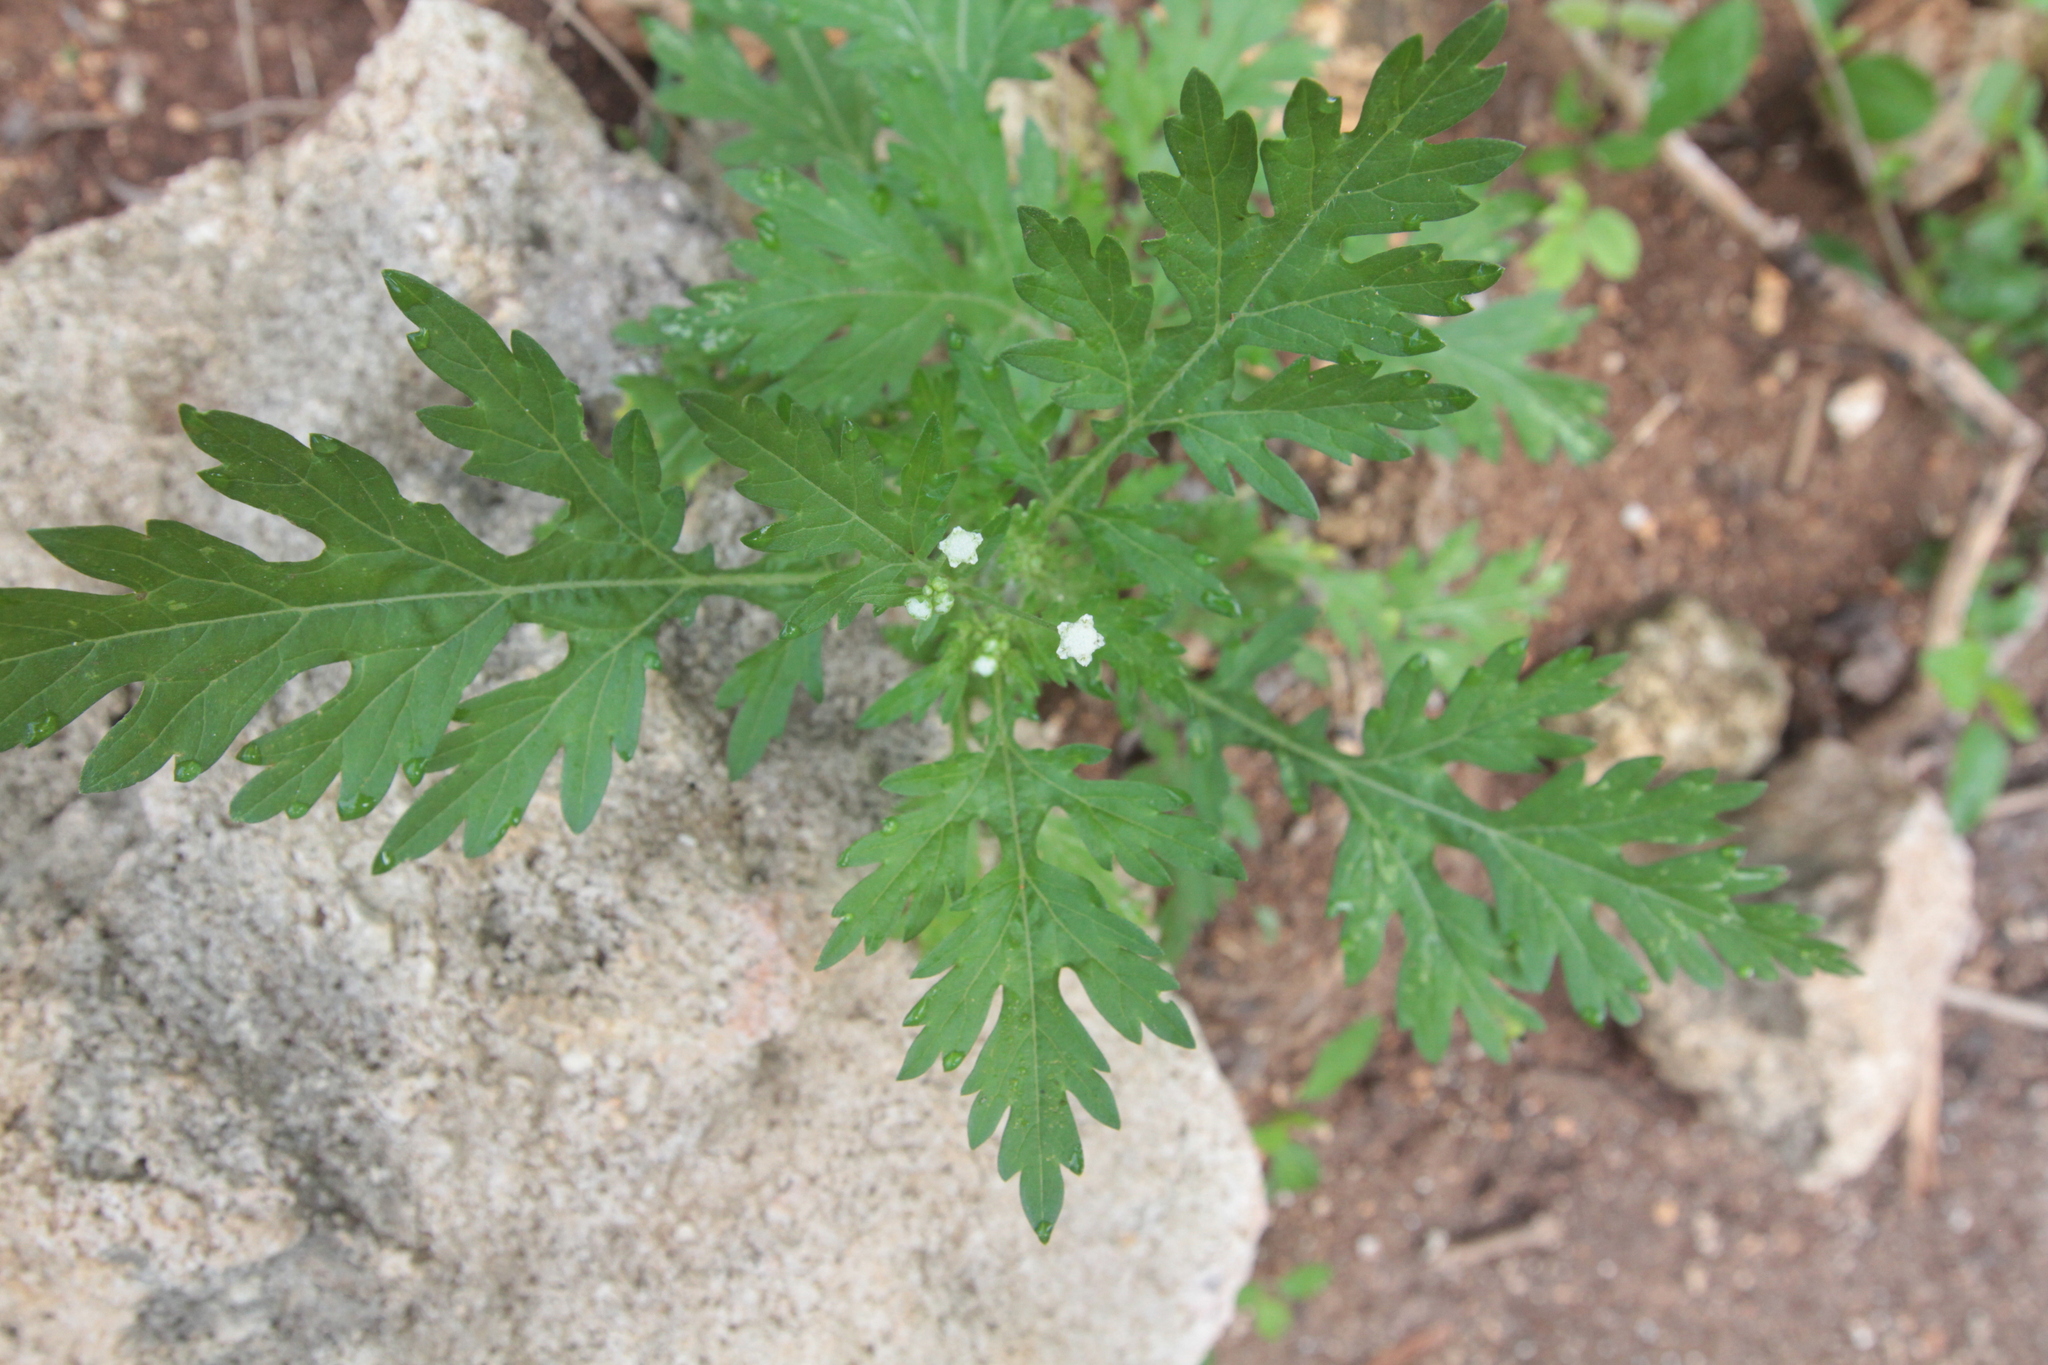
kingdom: Plantae
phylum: Tracheophyta
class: Magnoliopsida
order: Asterales
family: Asteraceae
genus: Parthenium
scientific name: Parthenium hysterophorus
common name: Santa maria feverfew
